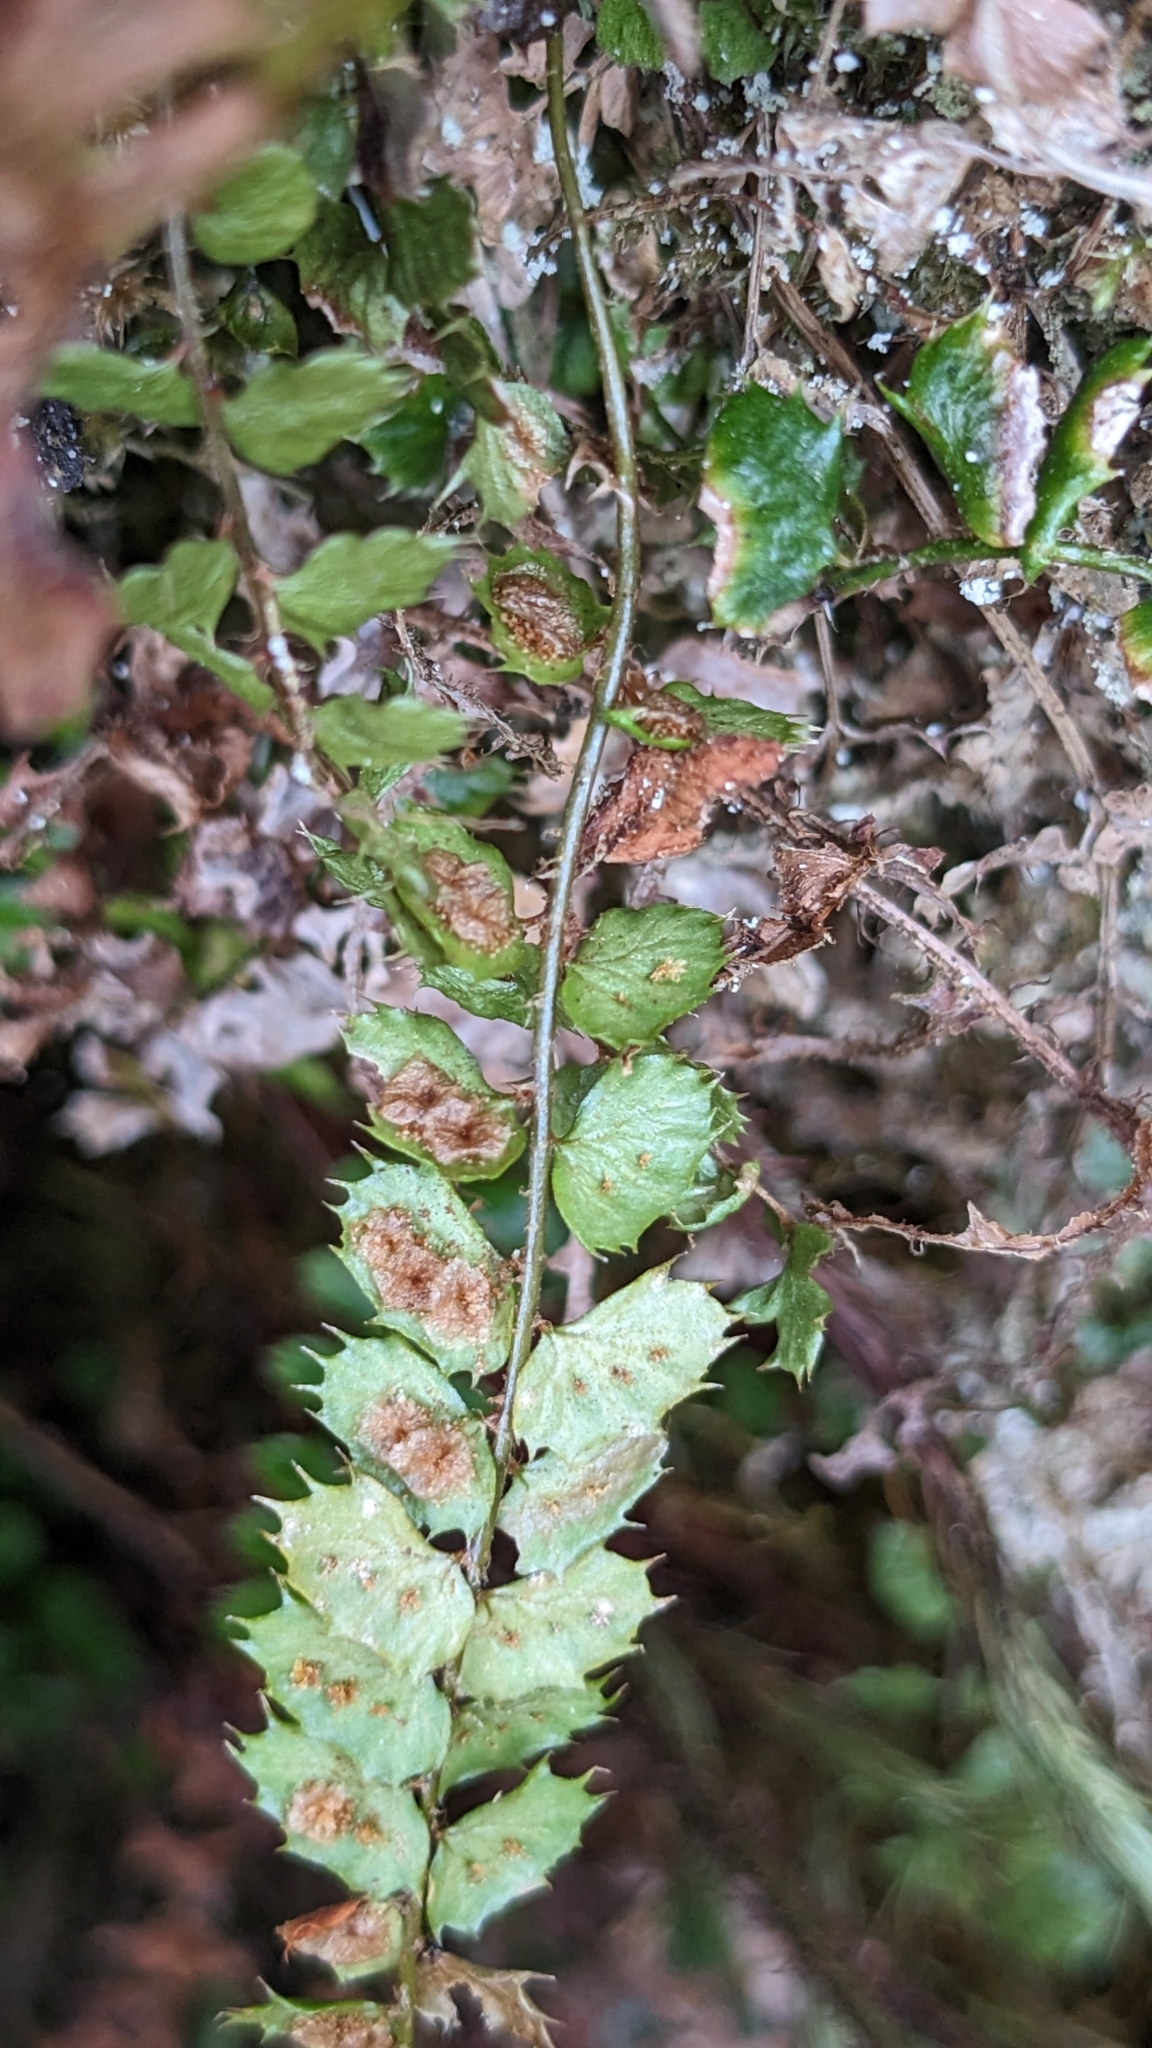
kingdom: Plantae
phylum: Tracheophyta
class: Polypodiopsida
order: Polypodiales
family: Dryopteridaceae
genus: Polystichum
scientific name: Polystichum atkinsonii
